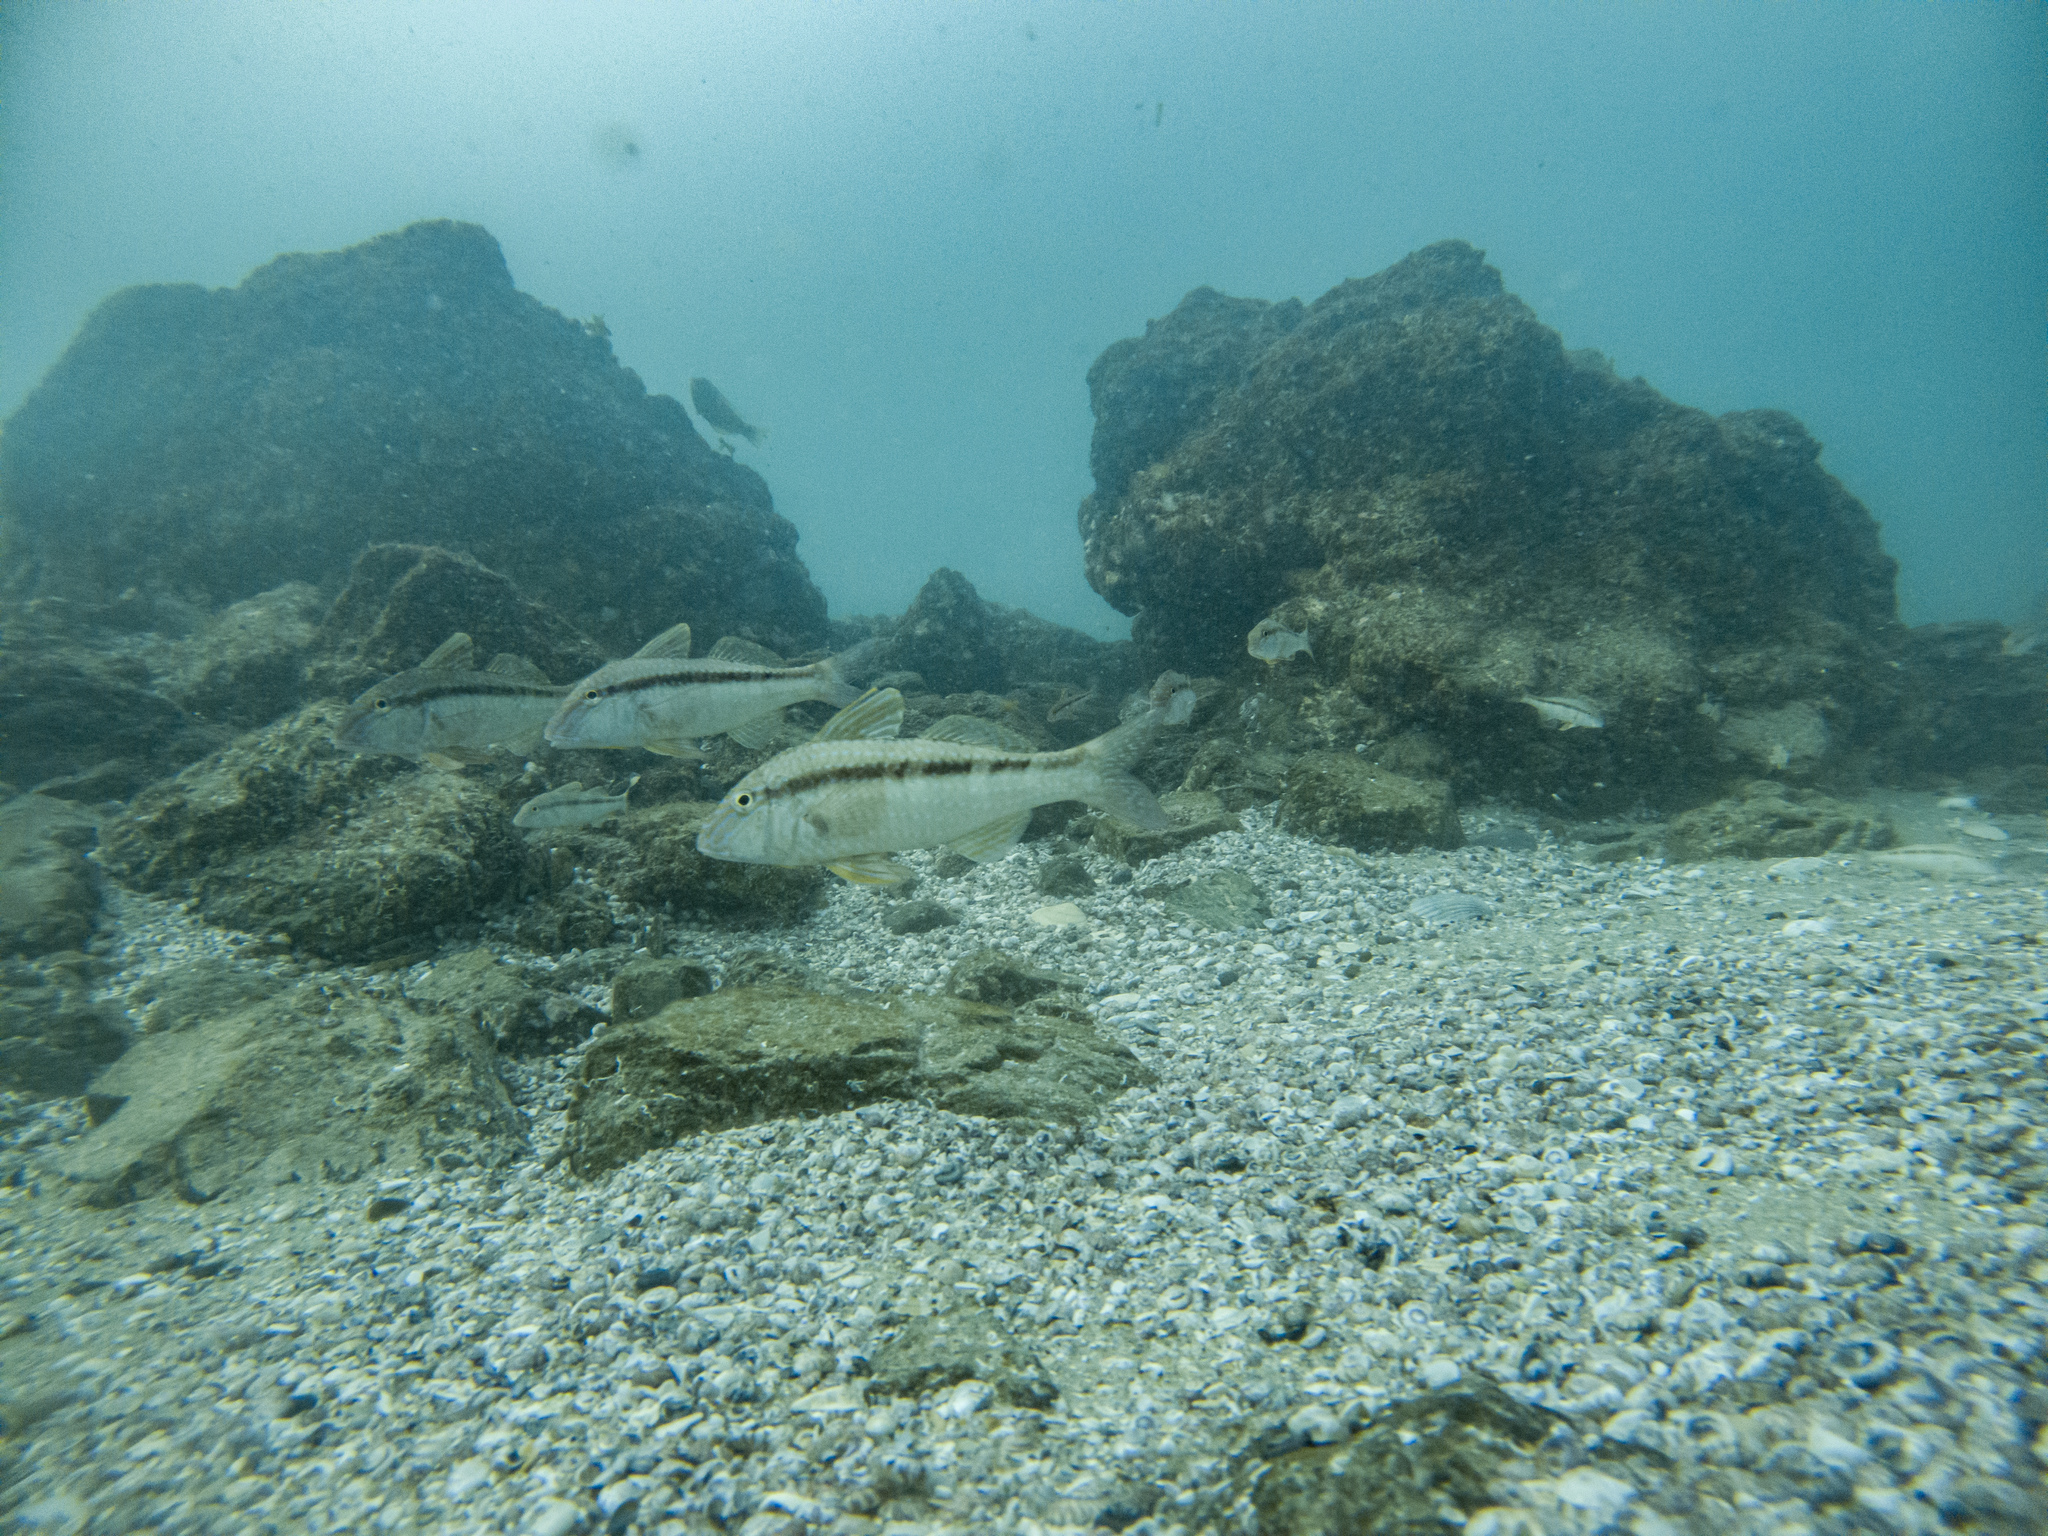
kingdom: Animalia
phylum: Chordata
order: Perciformes
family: Mullidae
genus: Upeneichthys
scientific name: Upeneichthys lineatus
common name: Red mullet
